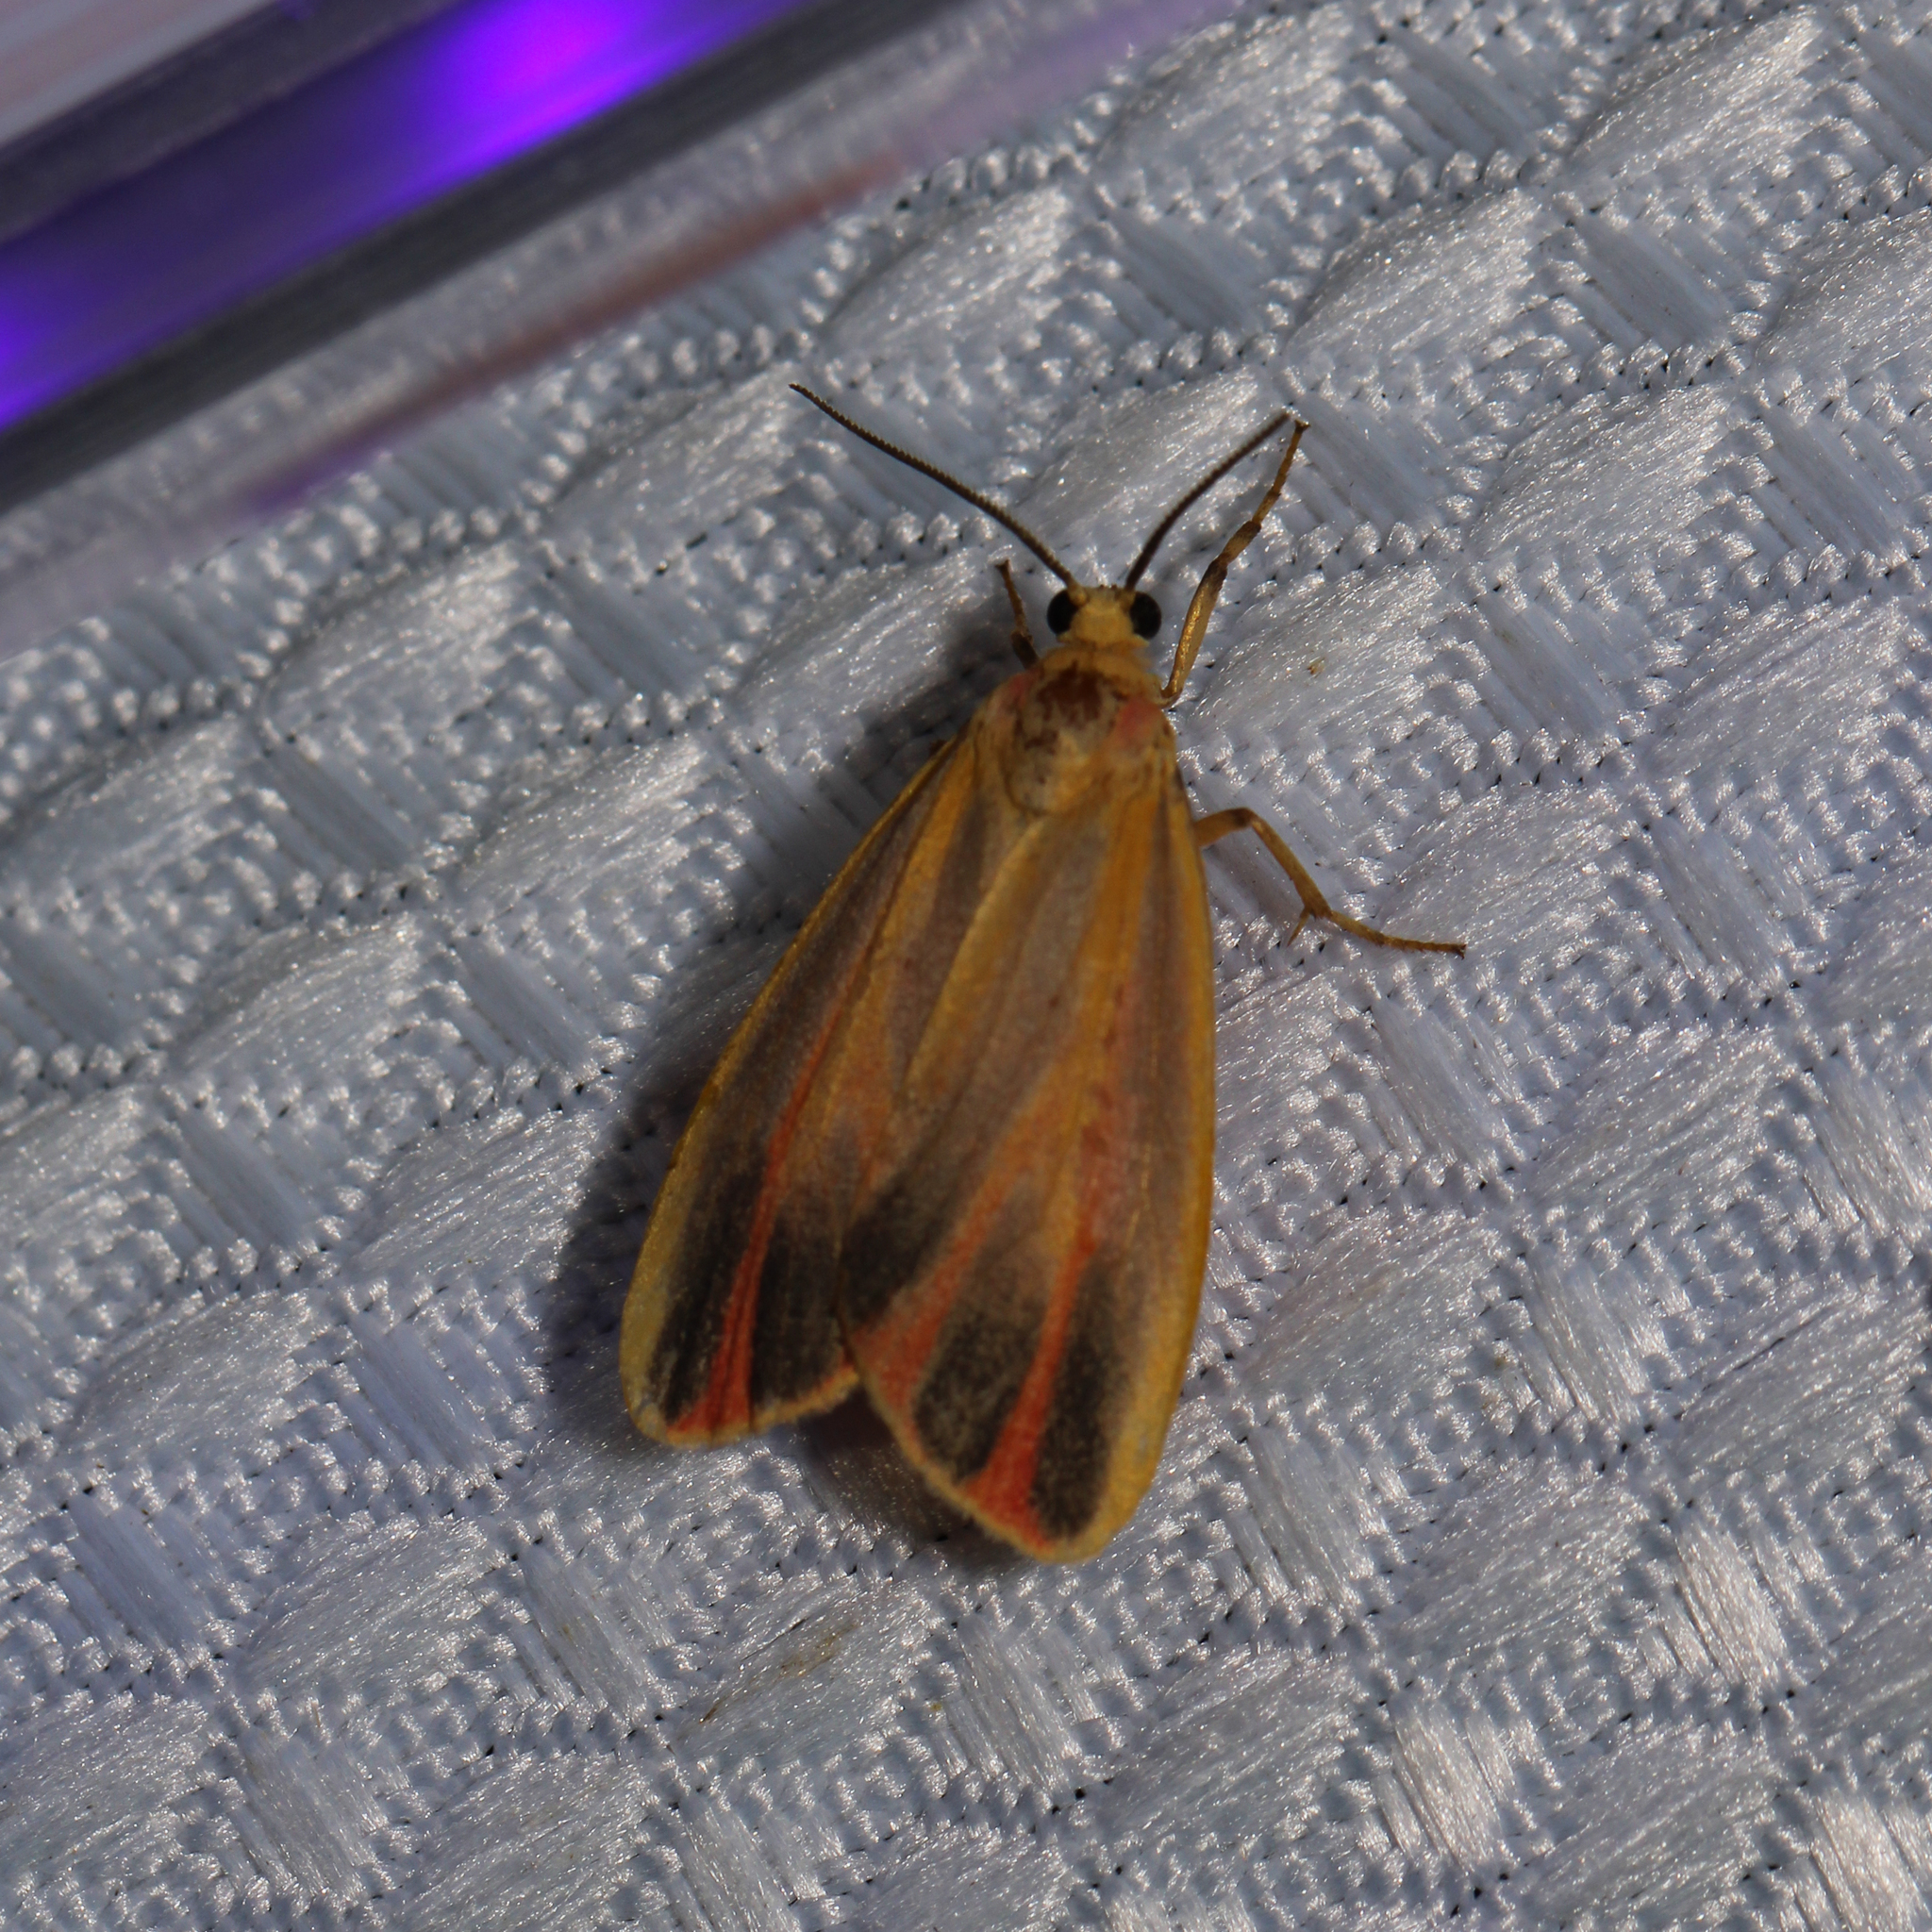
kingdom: Animalia
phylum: Arthropoda
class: Insecta
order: Lepidoptera
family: Erebidae
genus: Hypoprepia
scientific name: Hypoprepia fucosa
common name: Painted lichen moth
